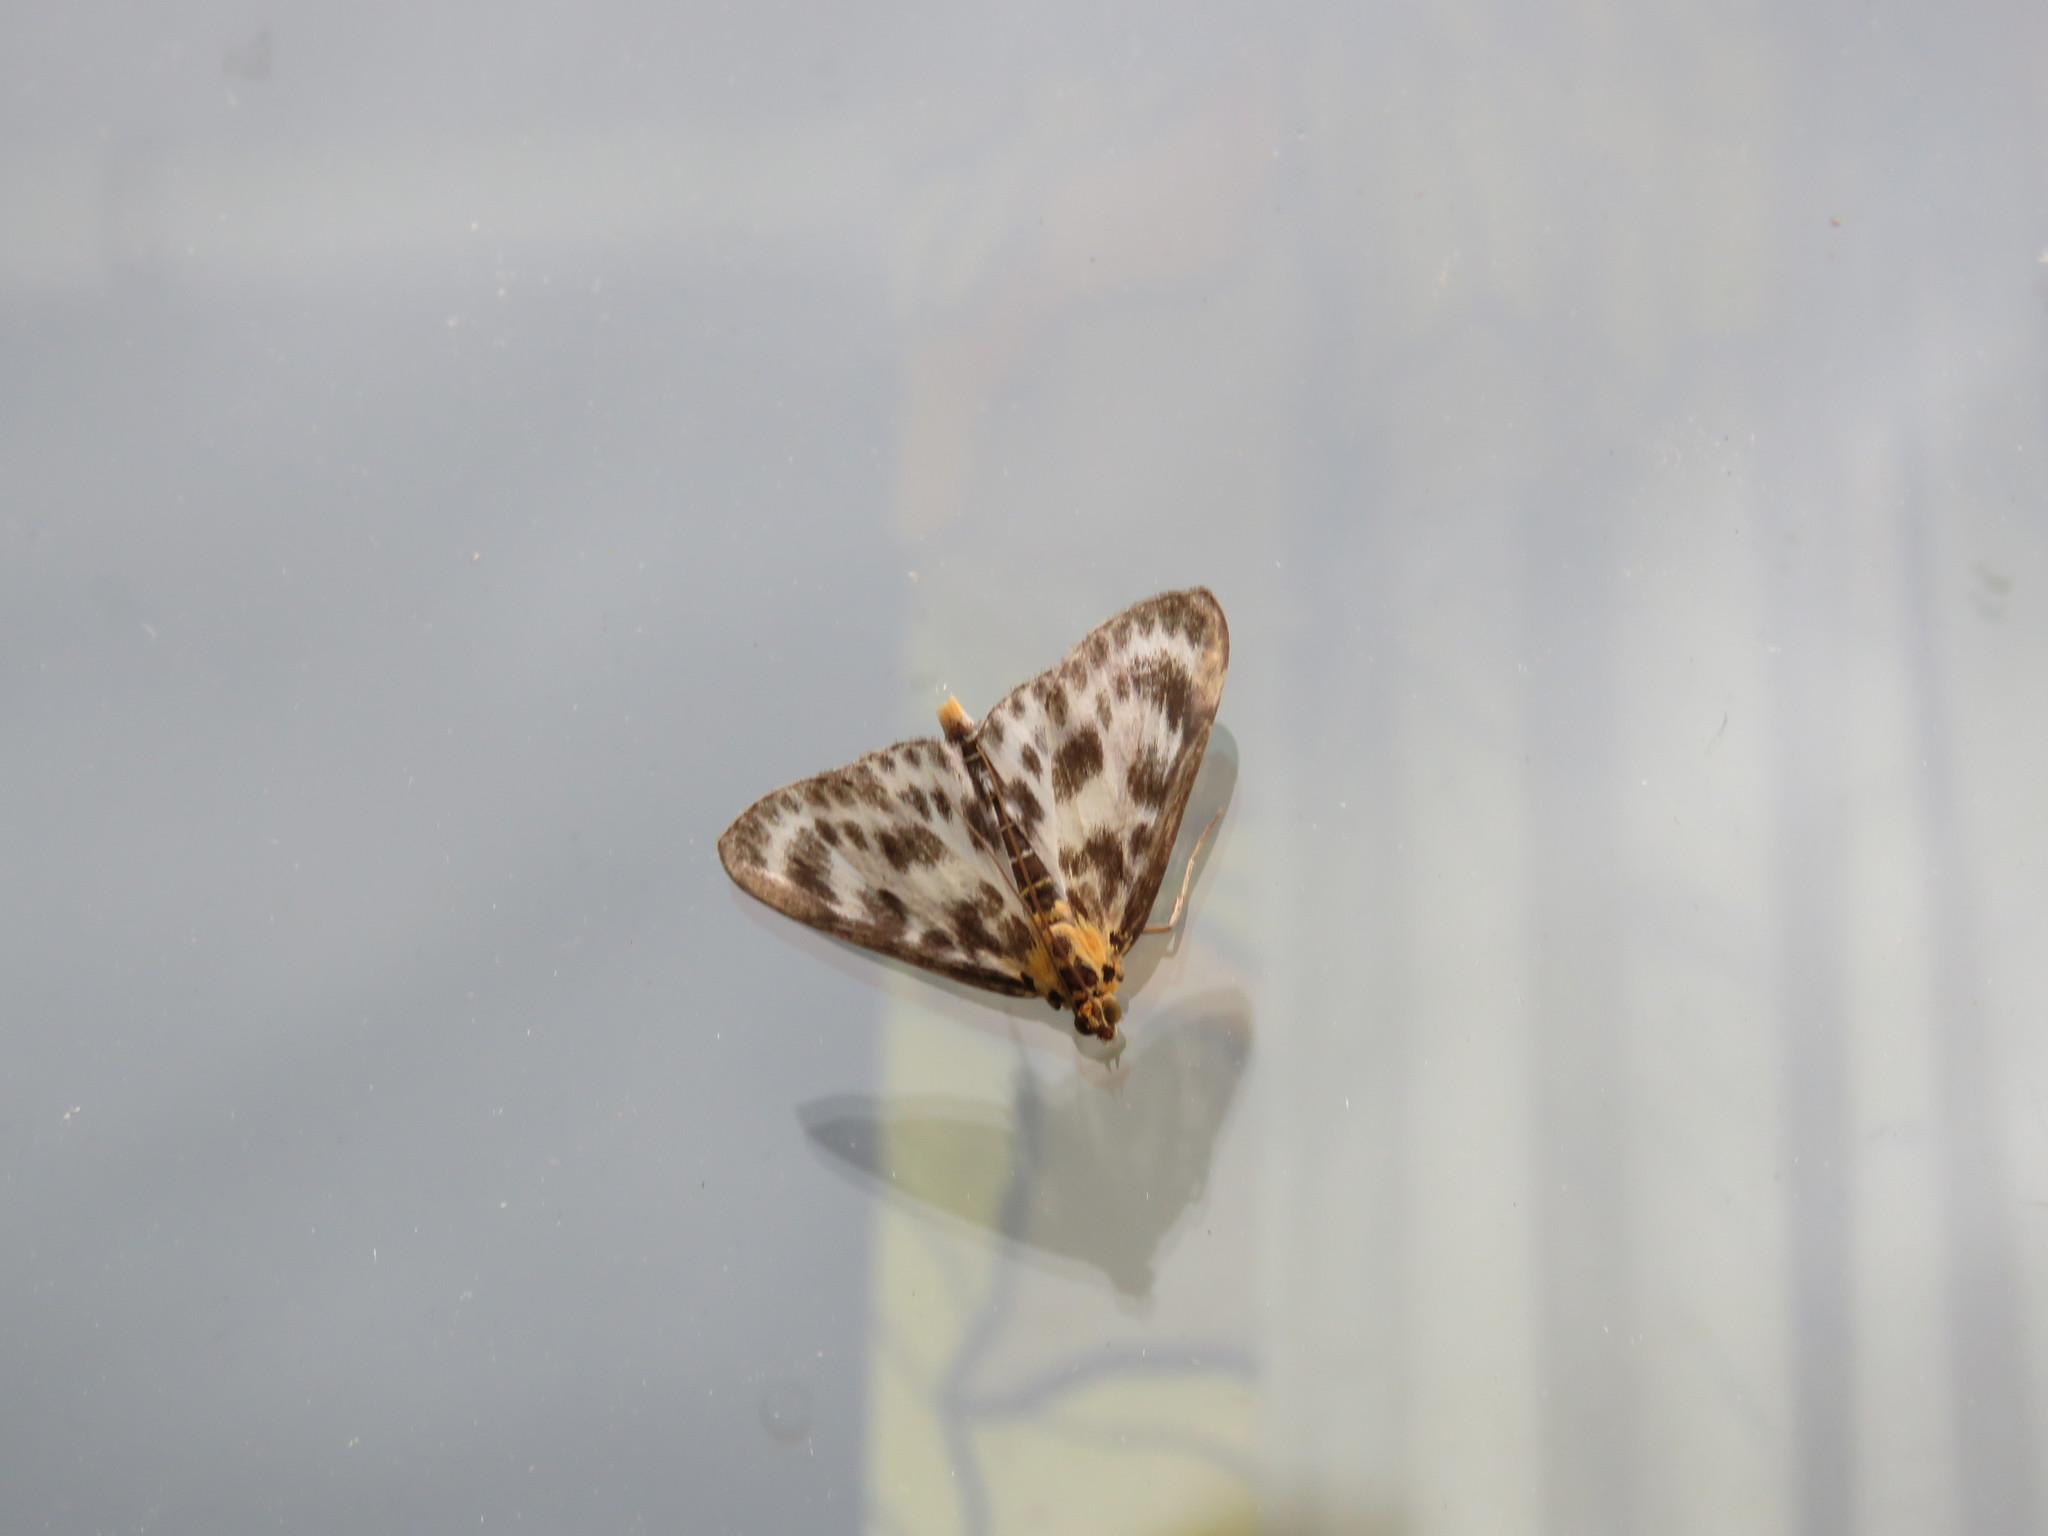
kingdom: Animalia
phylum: Arthropoda
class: Insecta
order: Lepidoptera
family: Crambidae
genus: Anania
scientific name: Anania hortulata
